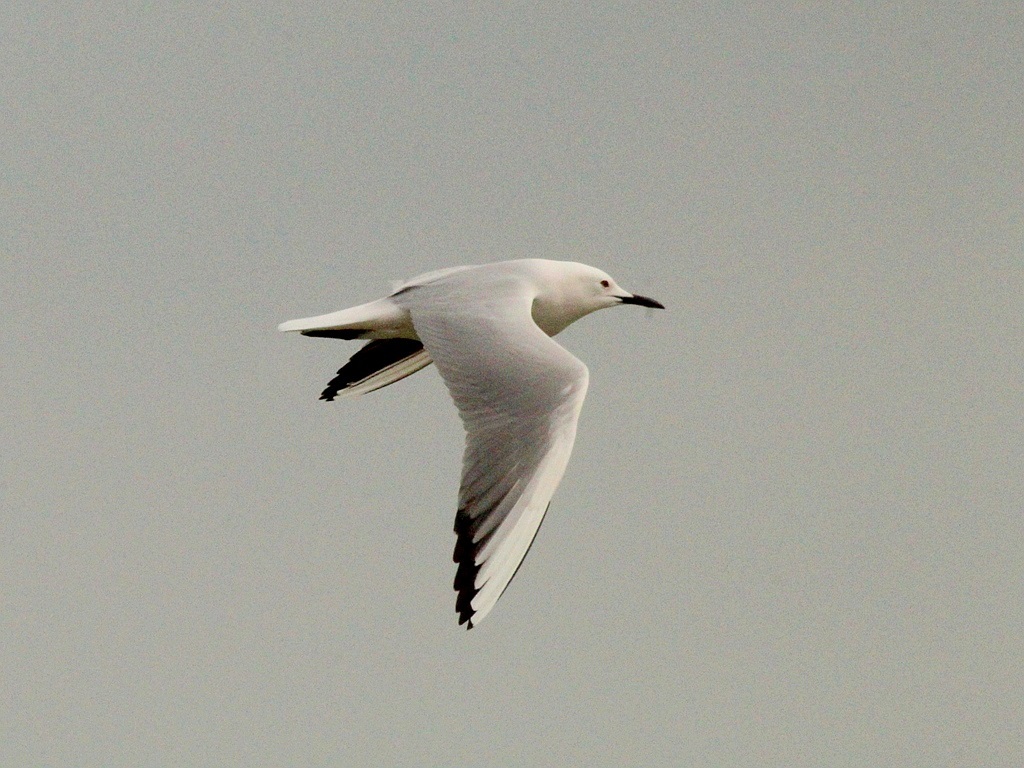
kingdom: Animalia
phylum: Chordata
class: Aves
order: Charadriiformes
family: Laridae
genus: Chroicocephalus
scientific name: Chroicocephalus genei
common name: Slender-billed gull
